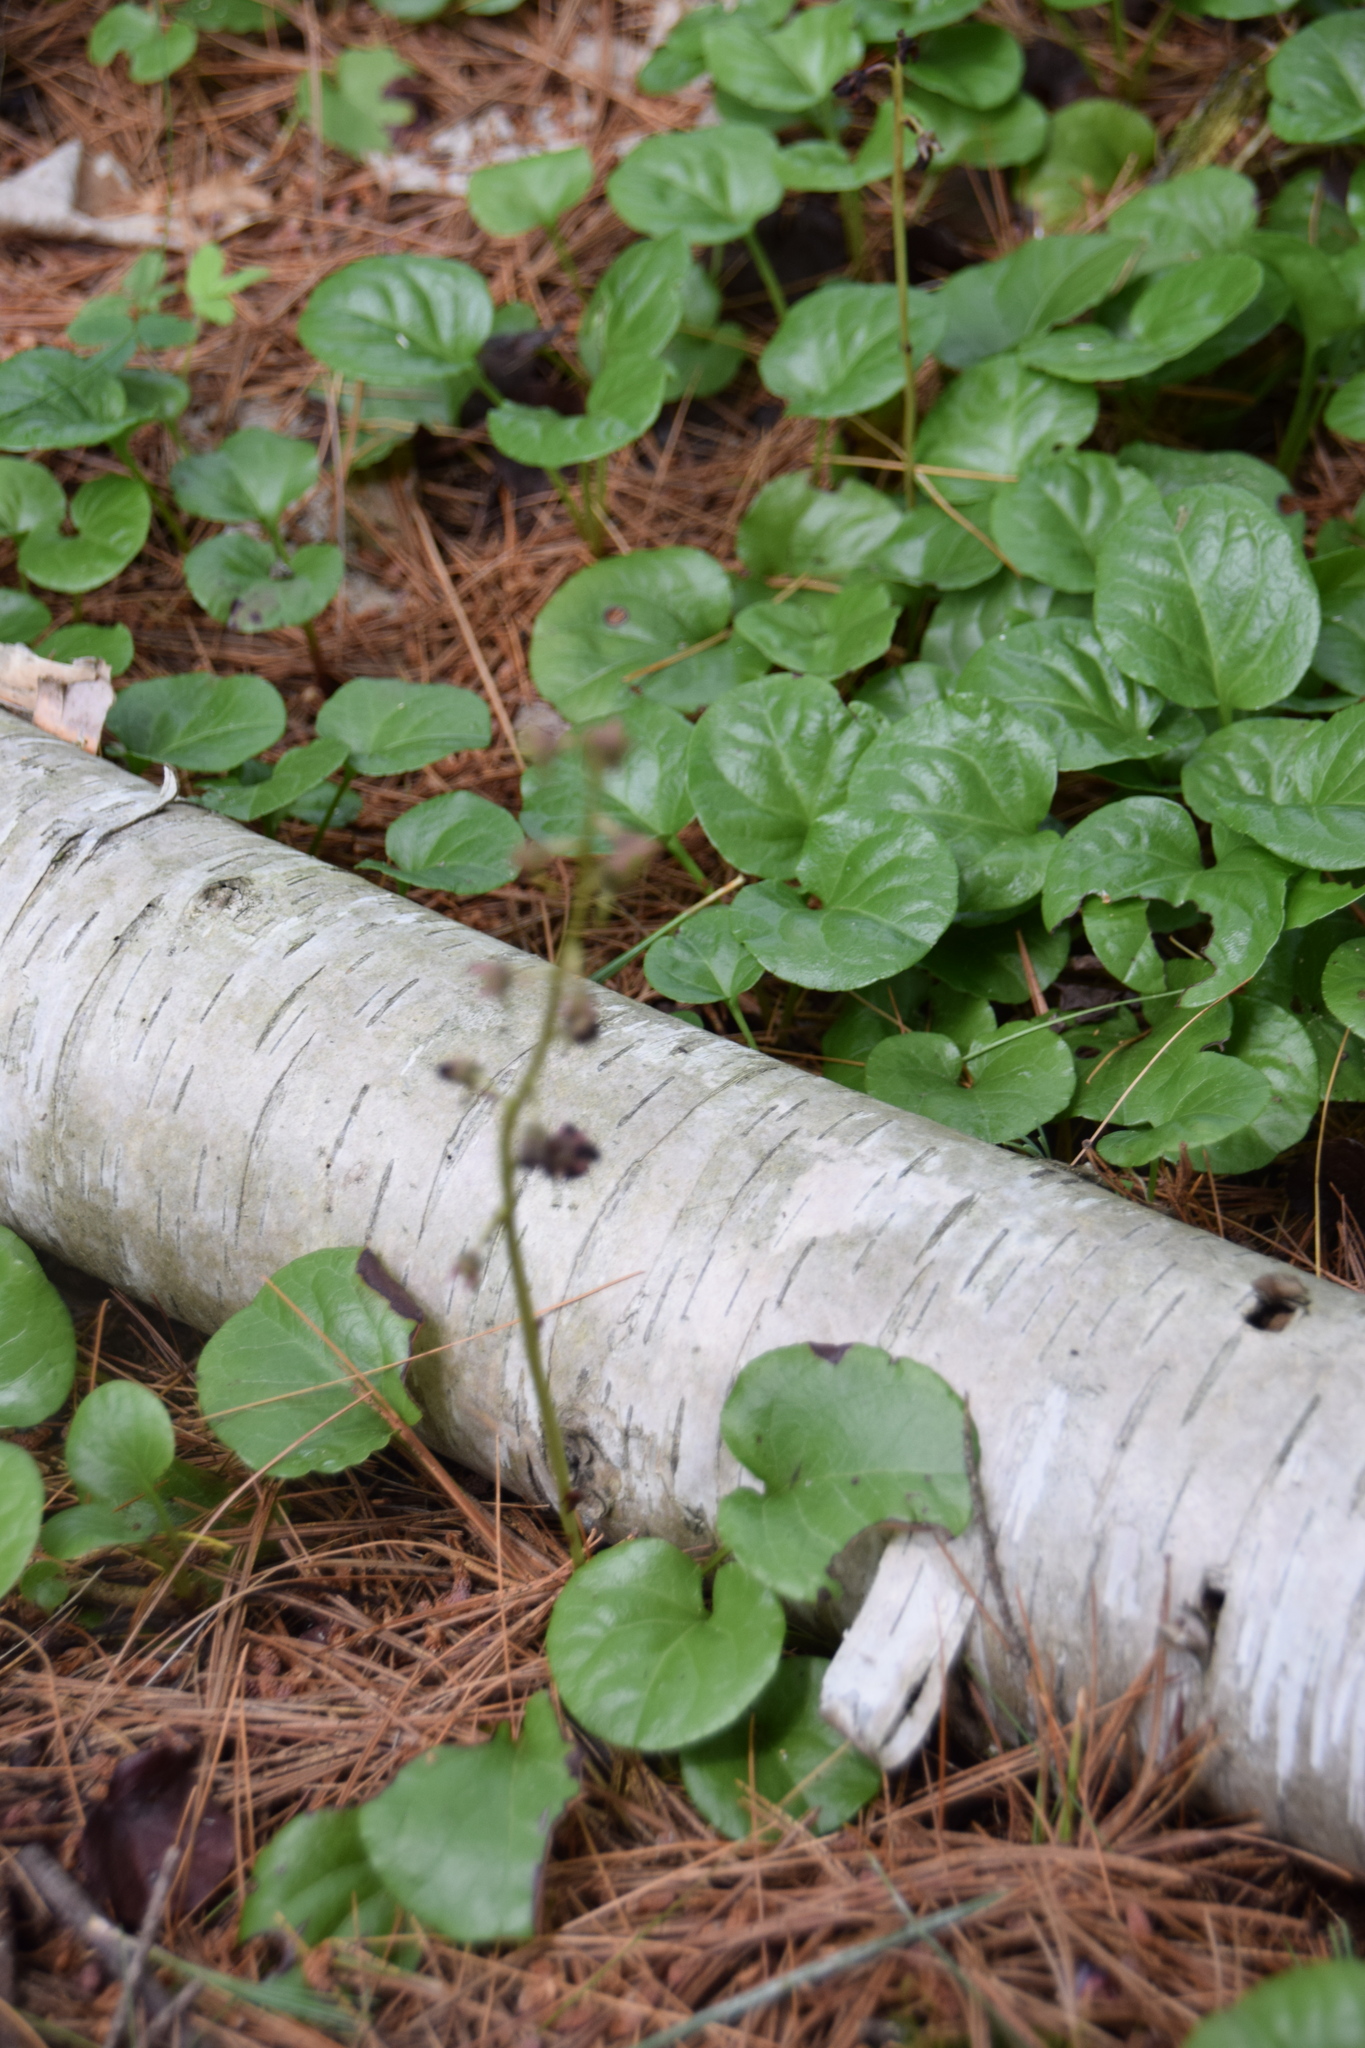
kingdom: Plantae
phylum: Tracheophyta
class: Magnoliopsida
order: Ericales
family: Ericaceae
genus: Pyrola
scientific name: Pyrola asarifolia
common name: Bog wintergreen
